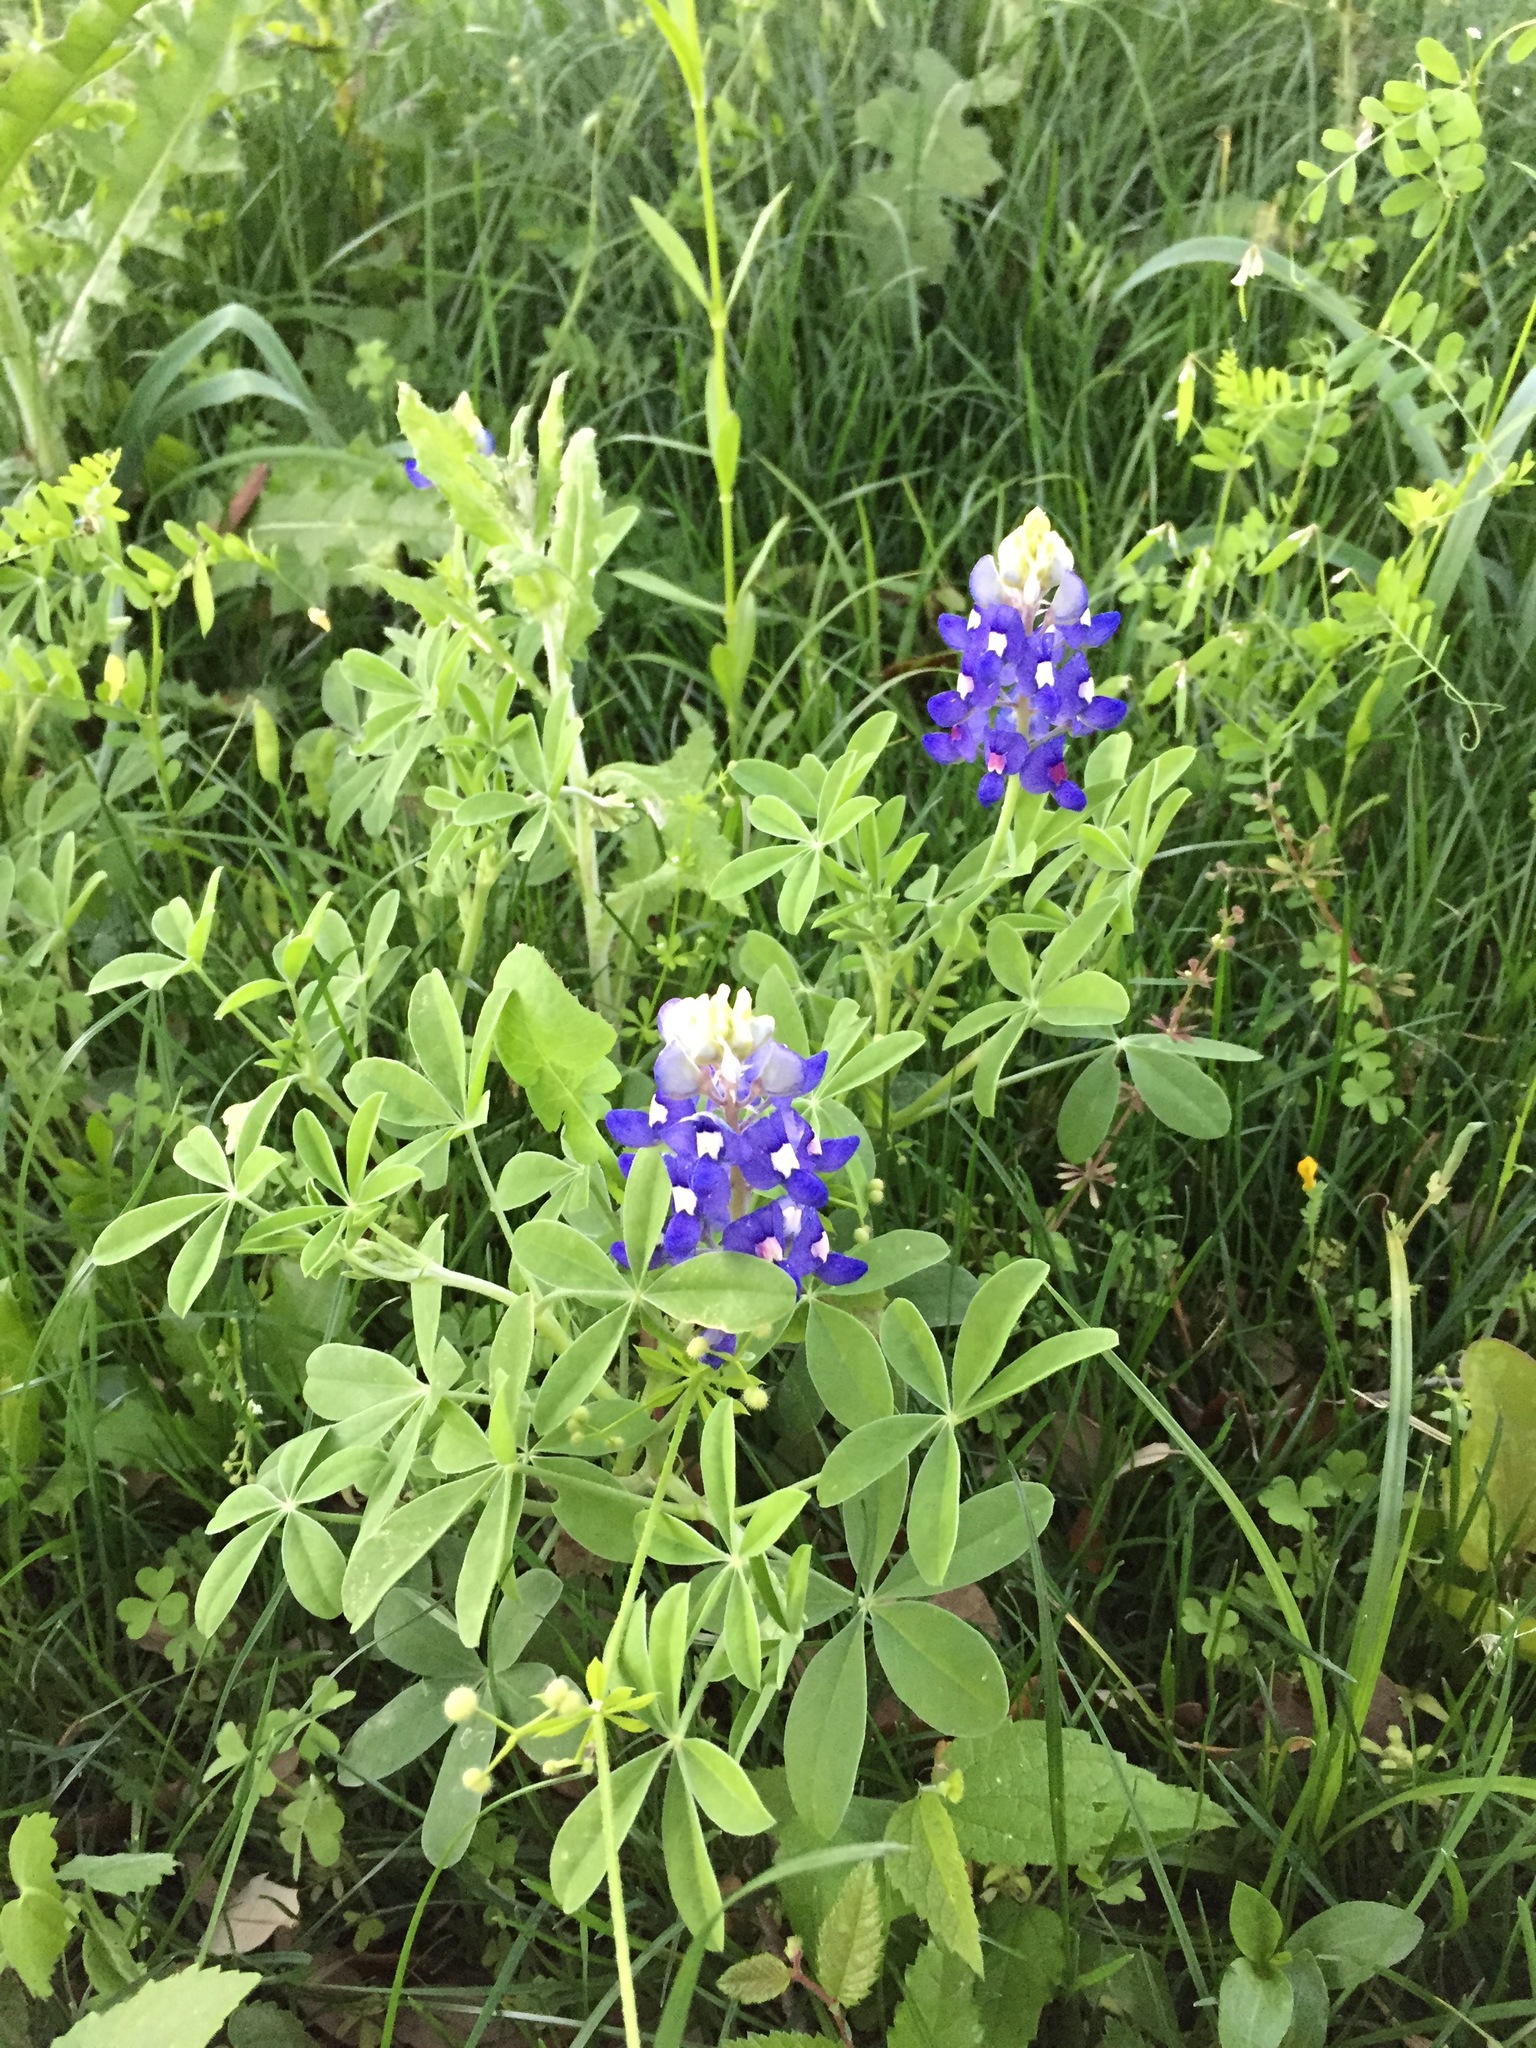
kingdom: Plantae
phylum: Tracheophyta
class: Magnoliopsida
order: Fabales
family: Fabaceae
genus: Lupinus
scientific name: Lupinus texensis
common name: Texas bluebonnet
